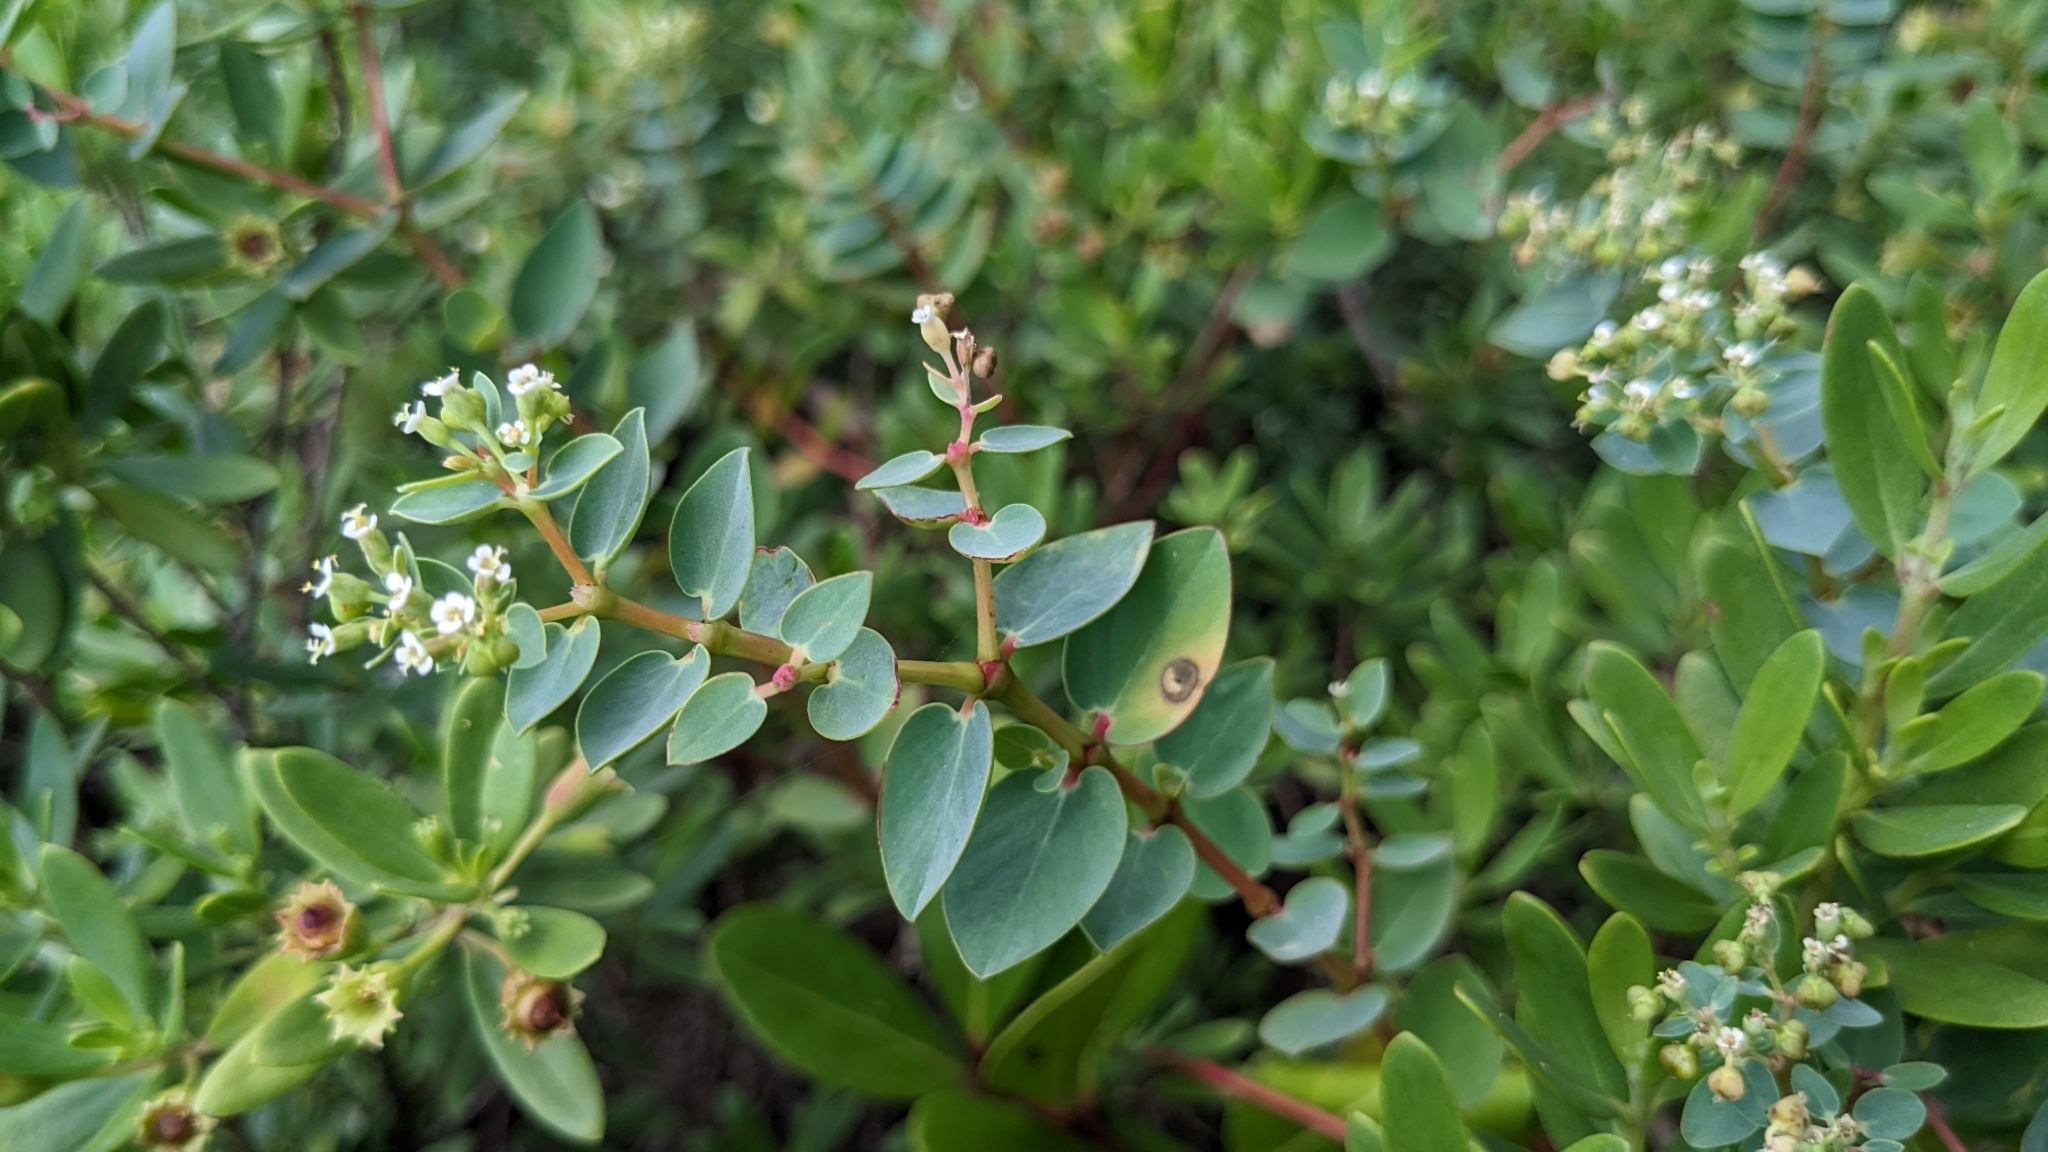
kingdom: Plantae
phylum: Tracheophyta
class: Magnoliopsida
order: Malpighiales
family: Euphorbiaceae
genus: Euphorbia
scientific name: Euphorbia sparrmanni
